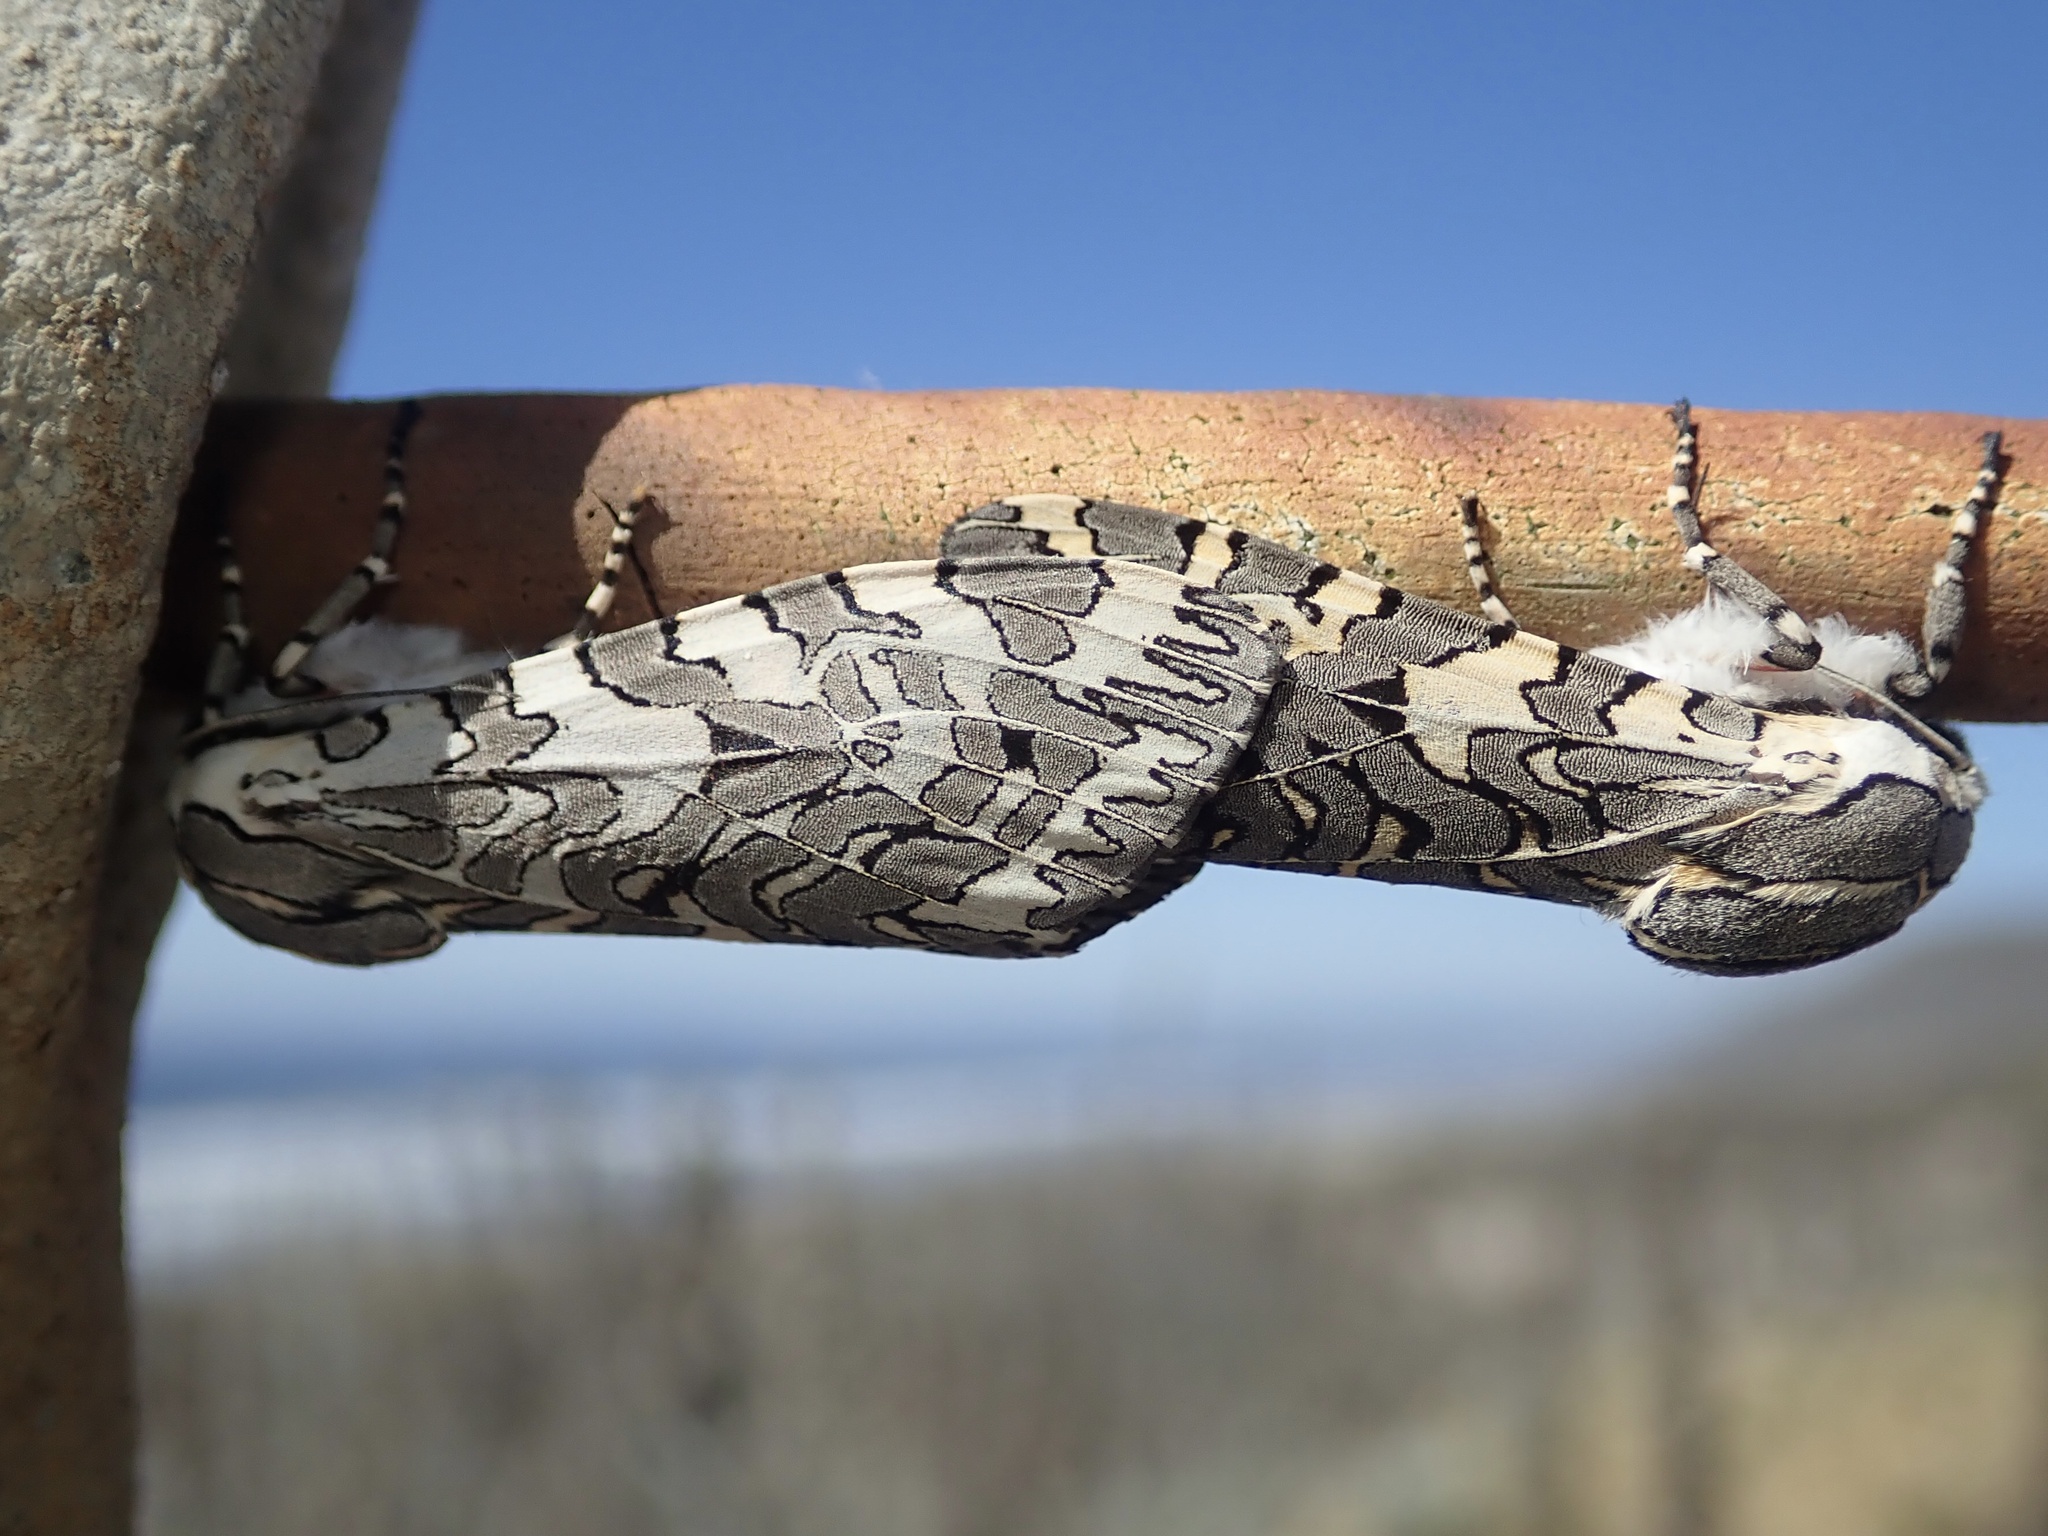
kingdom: Animalia
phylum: Arthropoda
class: Insecta
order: Lepidoptera
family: Erebidae
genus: Arachnis
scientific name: Arachnis picta
